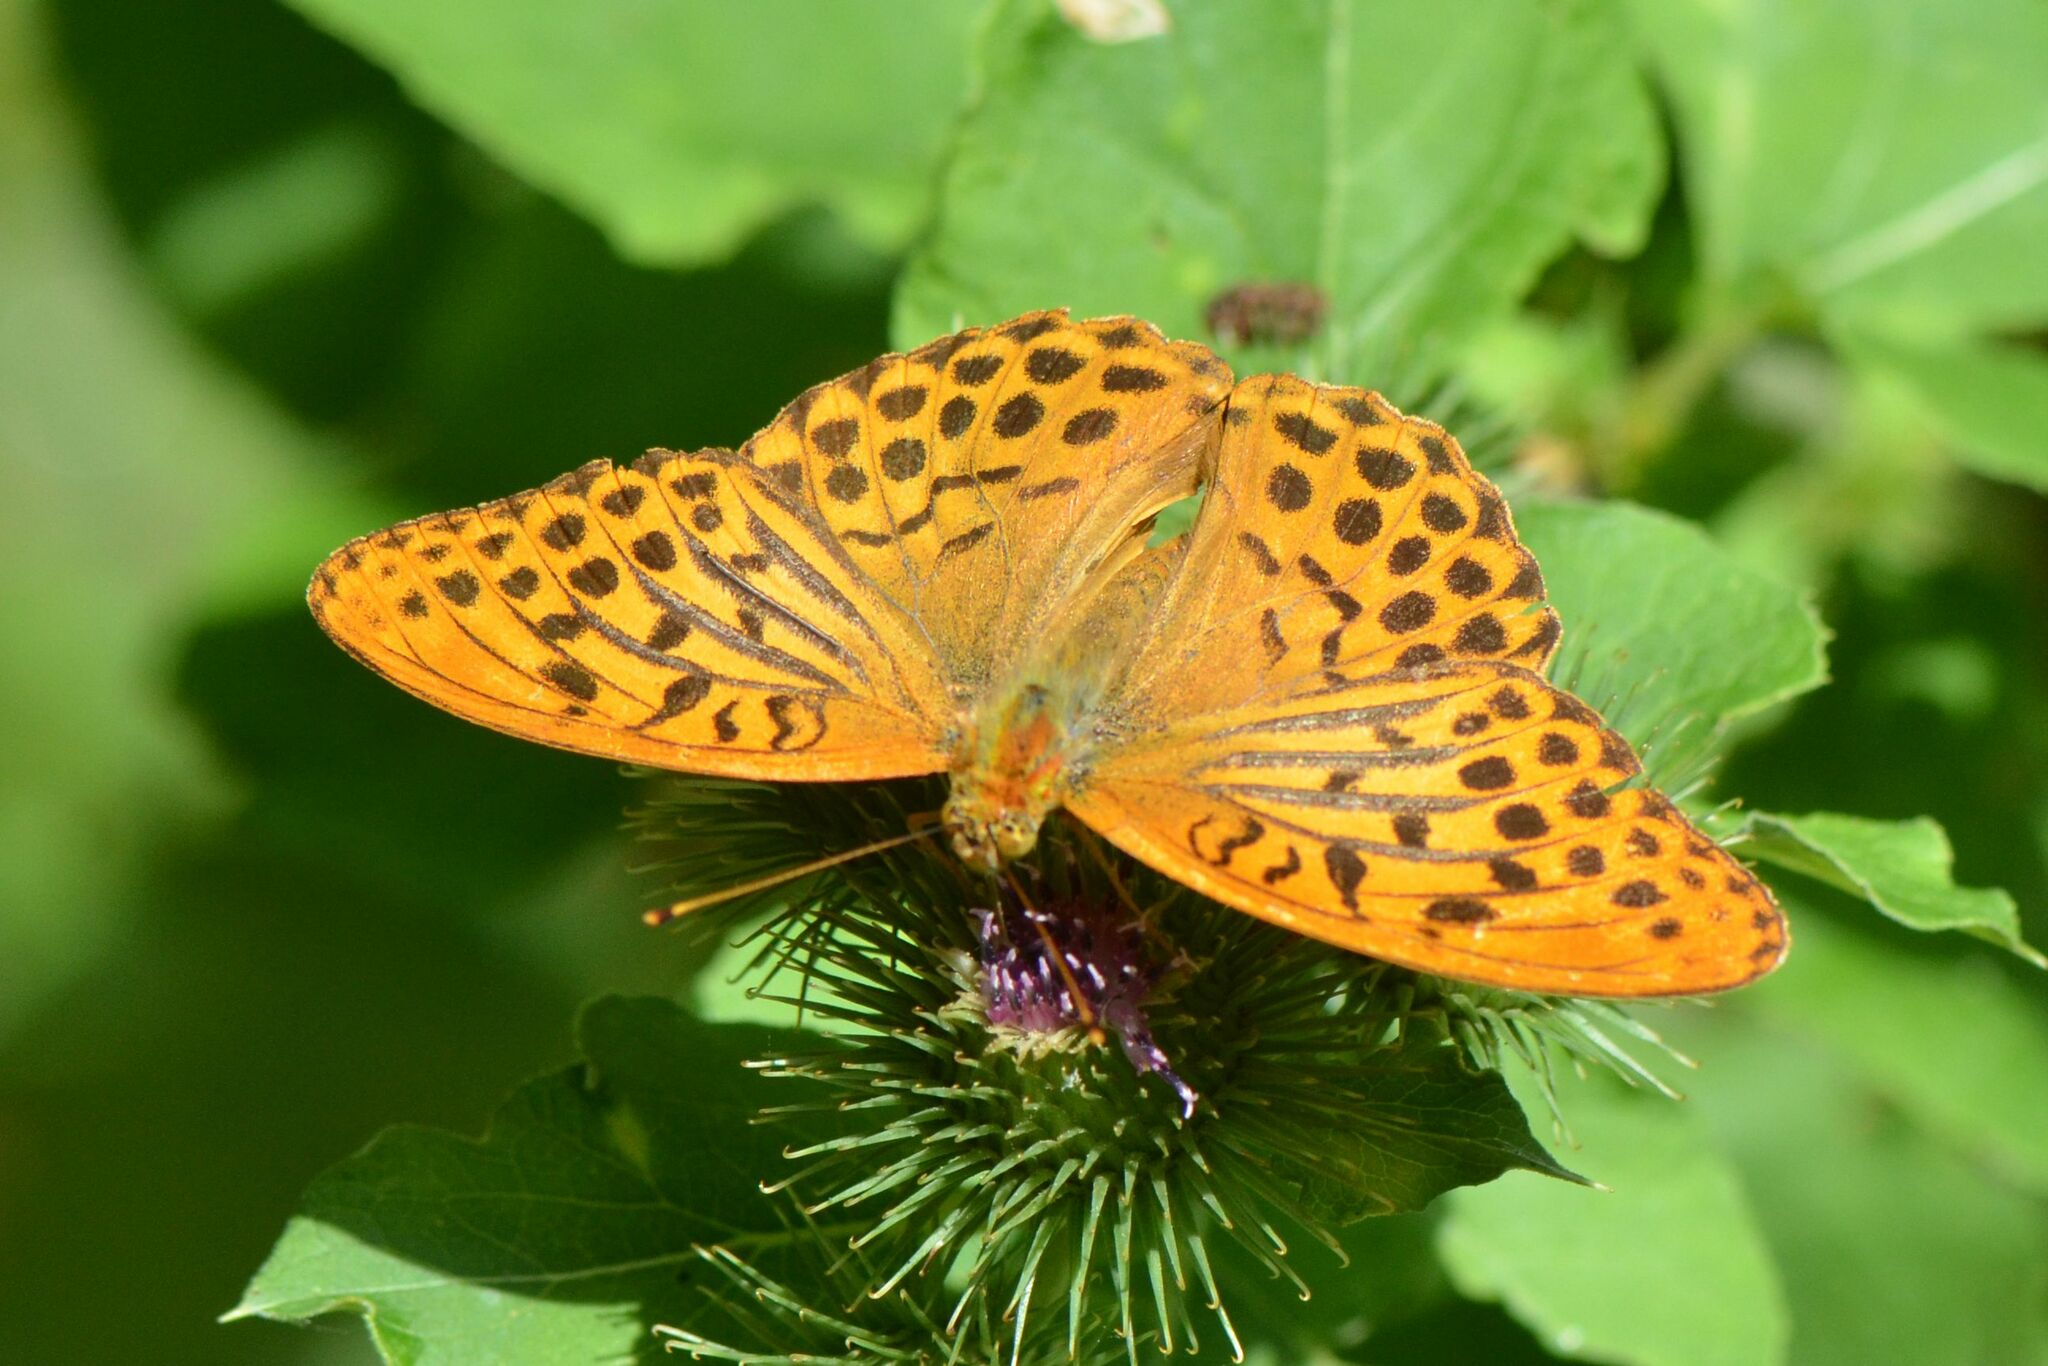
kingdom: Animalia
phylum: Arthropoda
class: Insecta
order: Lepidoptera
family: Nymphalidae
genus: Argynnis
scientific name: Argynnis paphia
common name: Silver-washed fritillary
